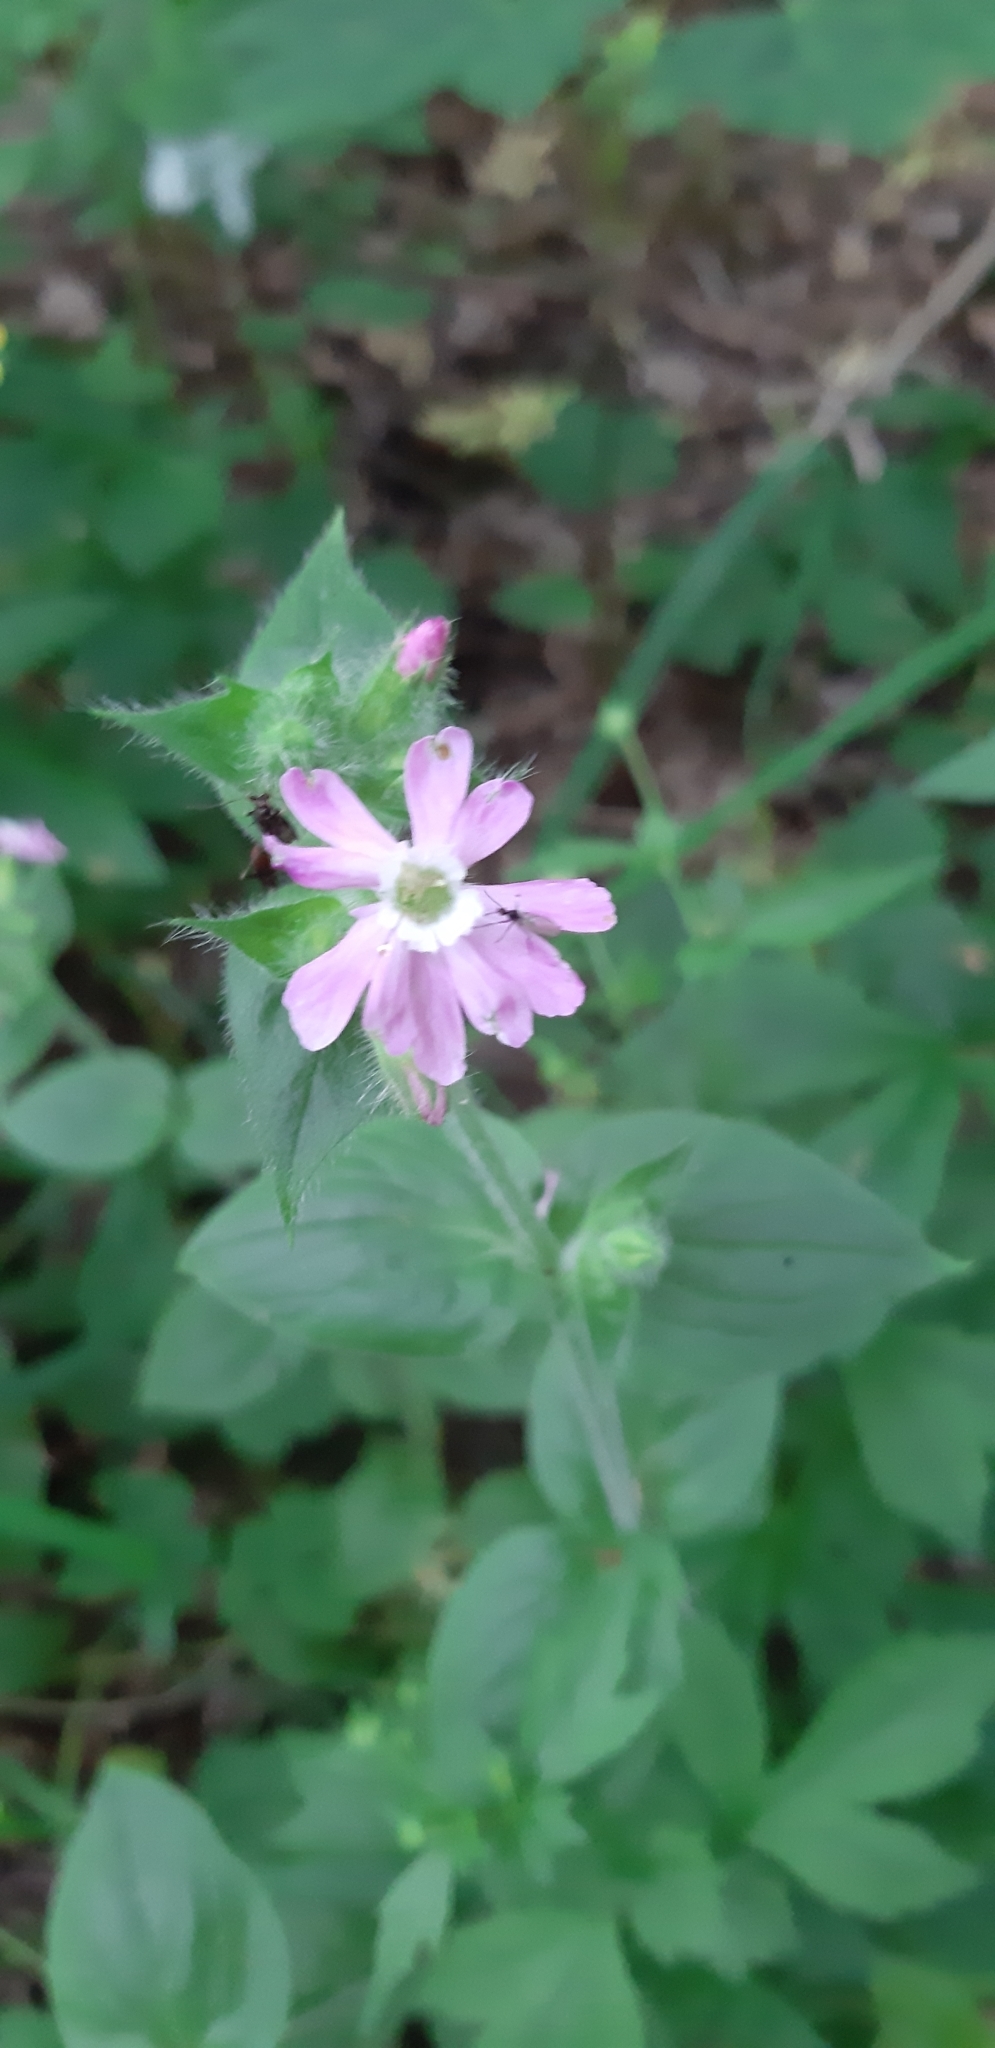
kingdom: Plantae
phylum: Tracheophyta
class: Magnoliopsida
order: Caryophyllales
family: Caryophyllaceae
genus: Silene
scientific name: Silene dioica
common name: Red campion
